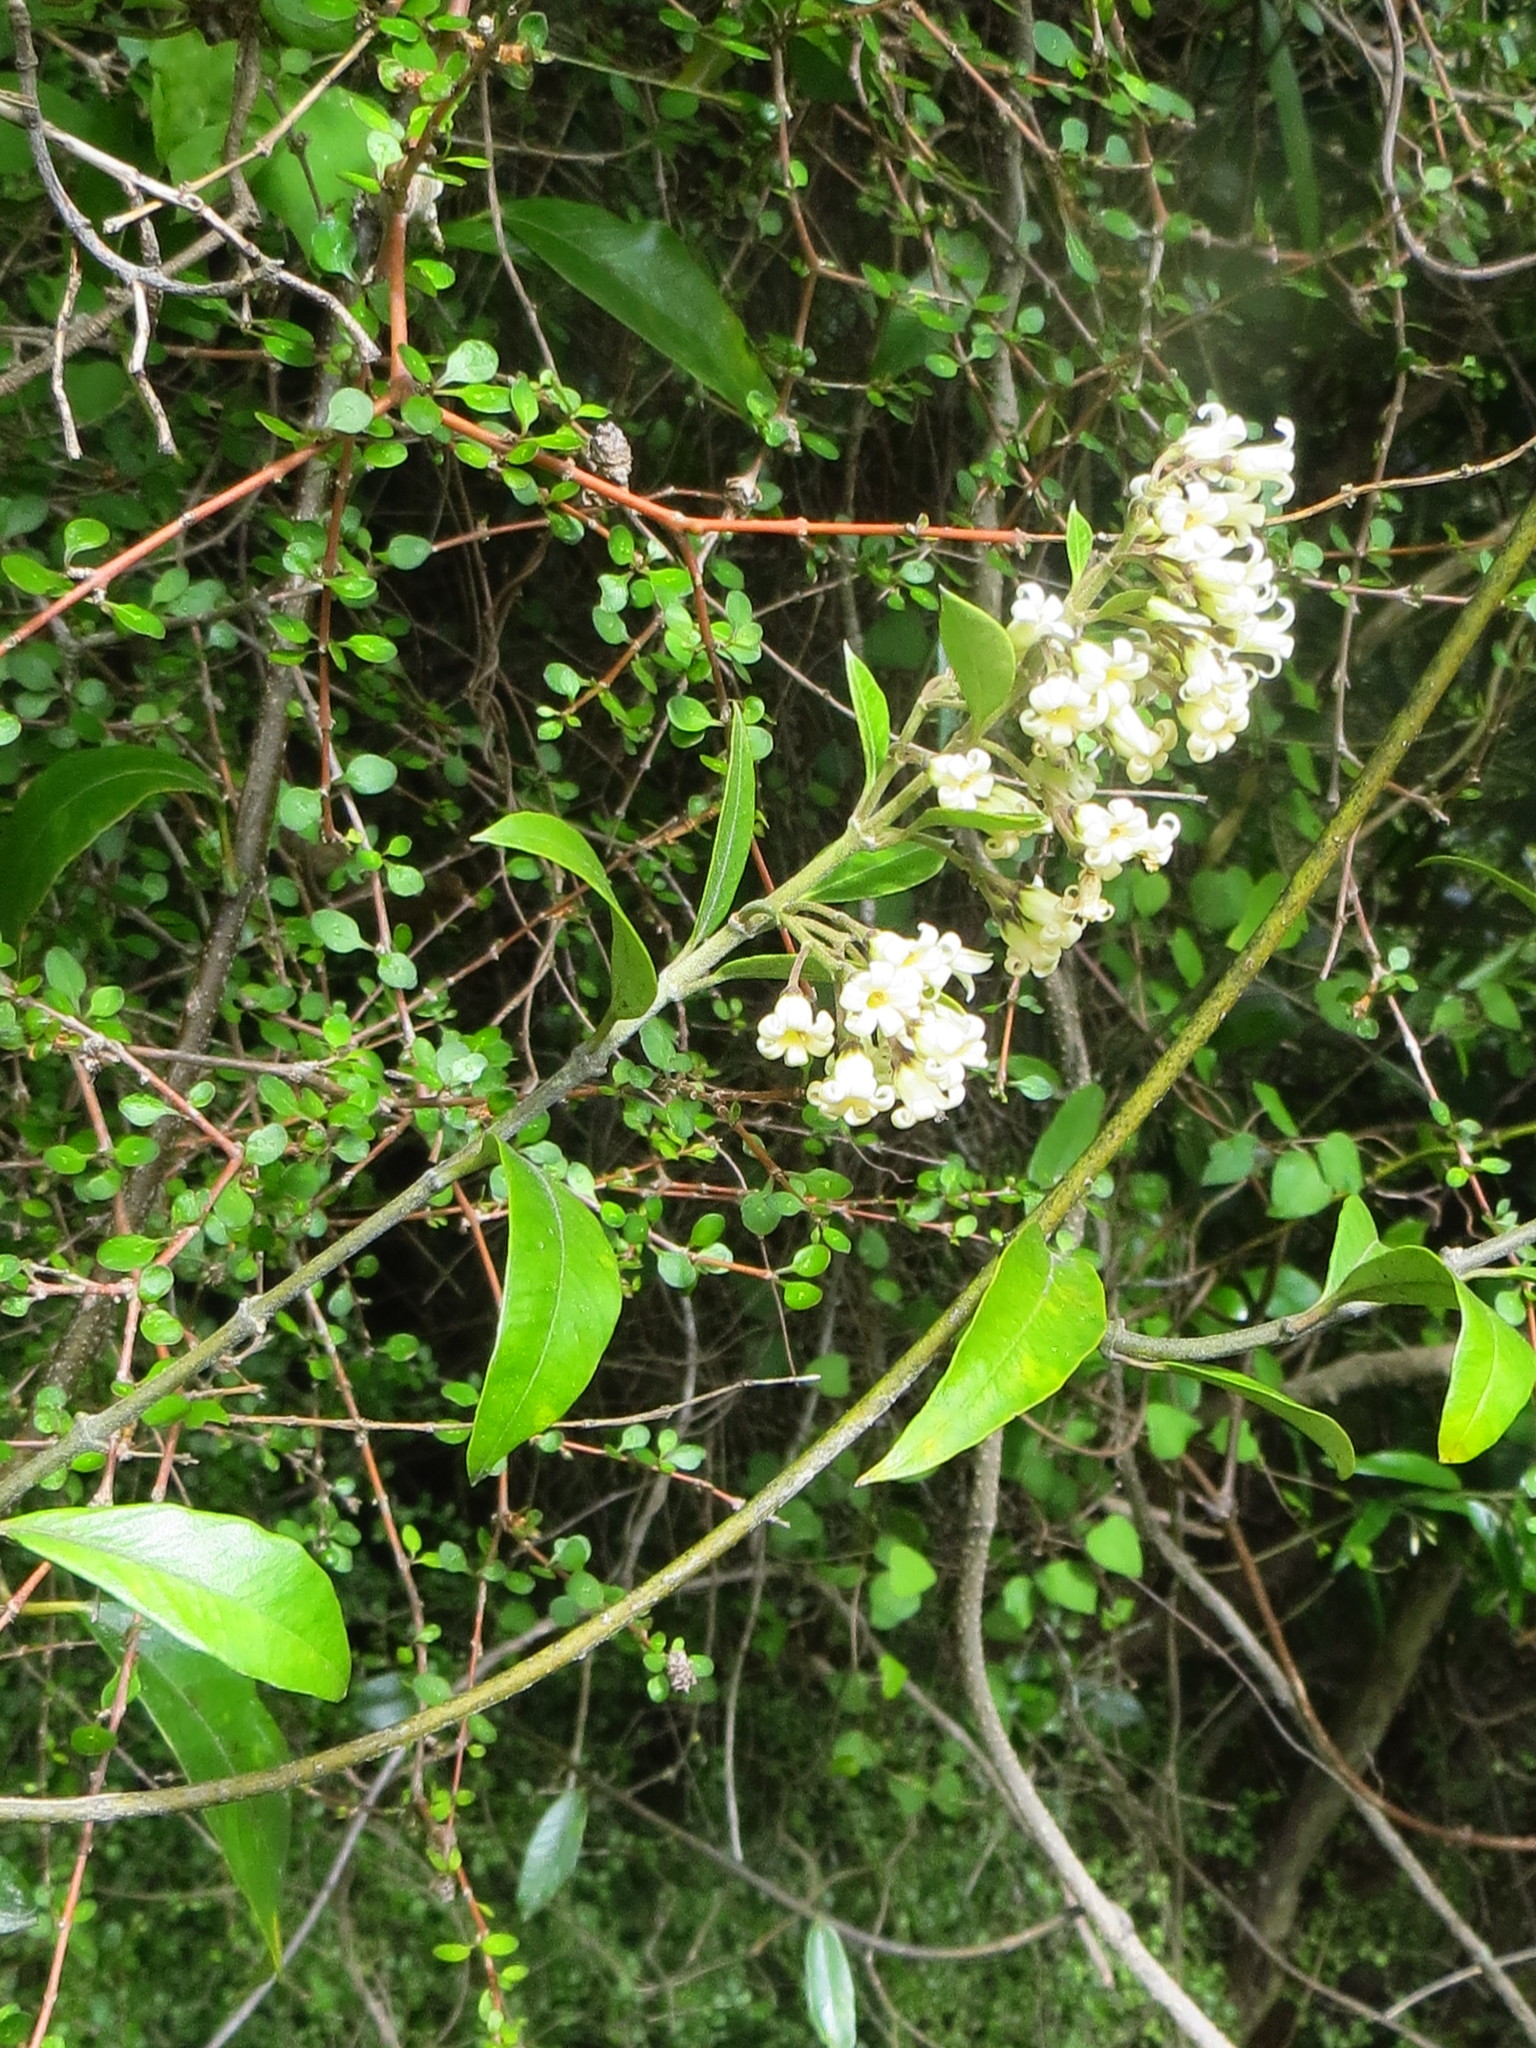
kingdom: Plantae
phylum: Tracheophyta
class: Magnoliopsida
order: Gentianales
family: Apocynaceae
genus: Parsonsia
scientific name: Parsonsia heterophylla
